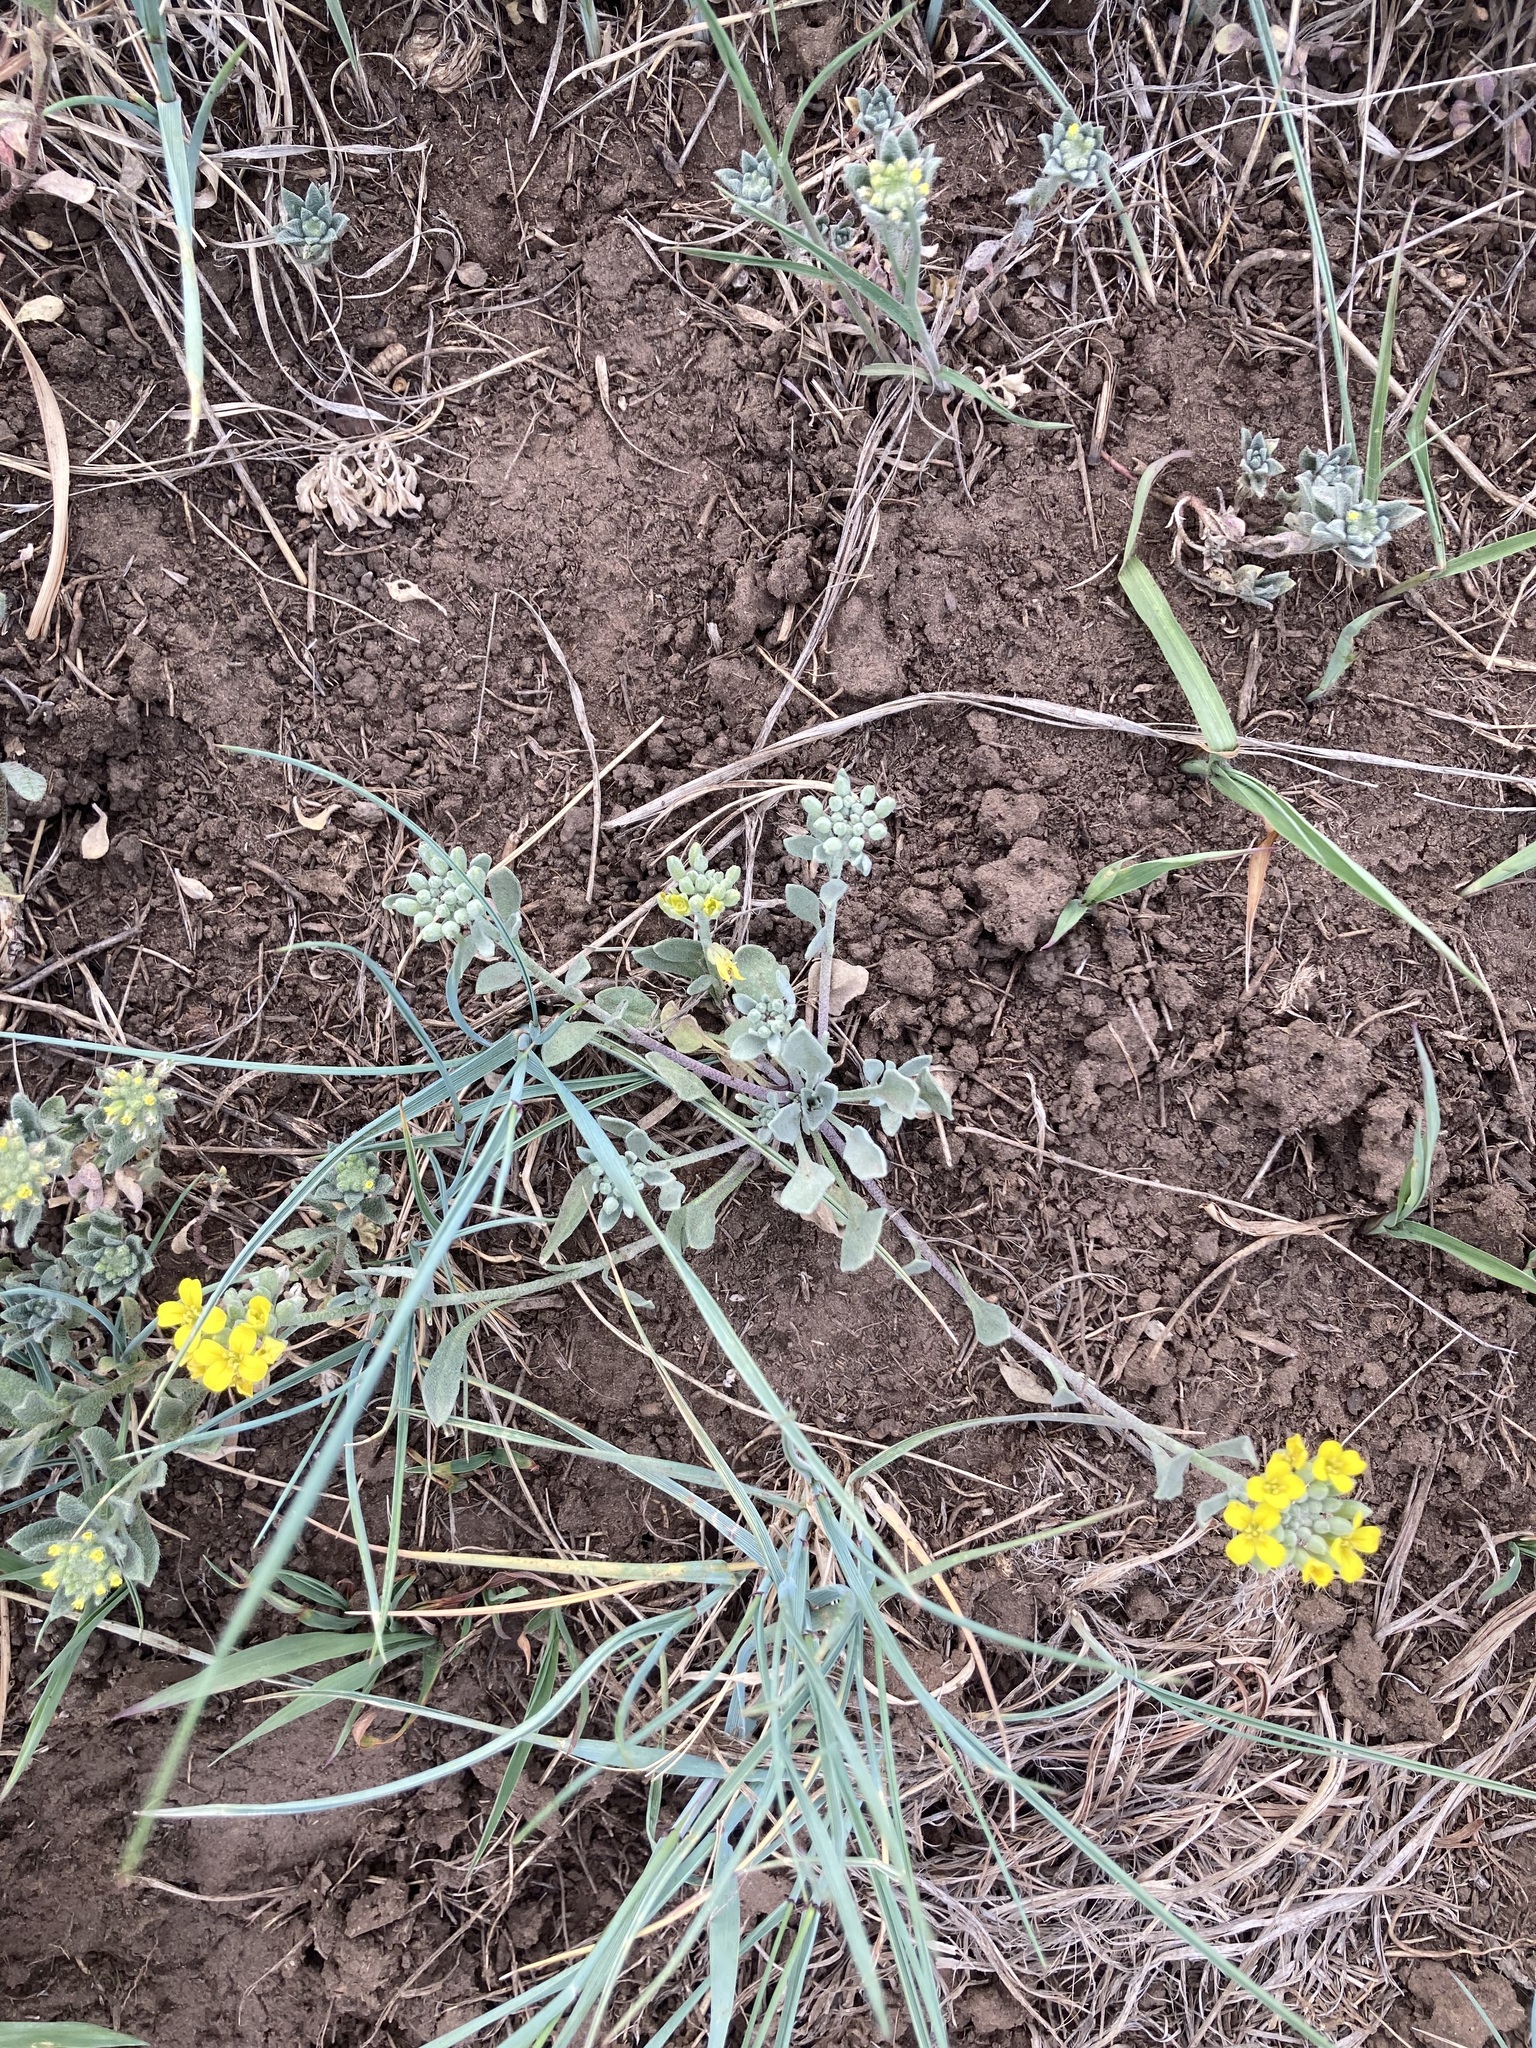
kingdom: Plantae
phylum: Tracheophyta
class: Magnoliopsida
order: Brassicales
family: Brassicaceae
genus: Physaria
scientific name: Physaria montana
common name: Mountain bladderpod
